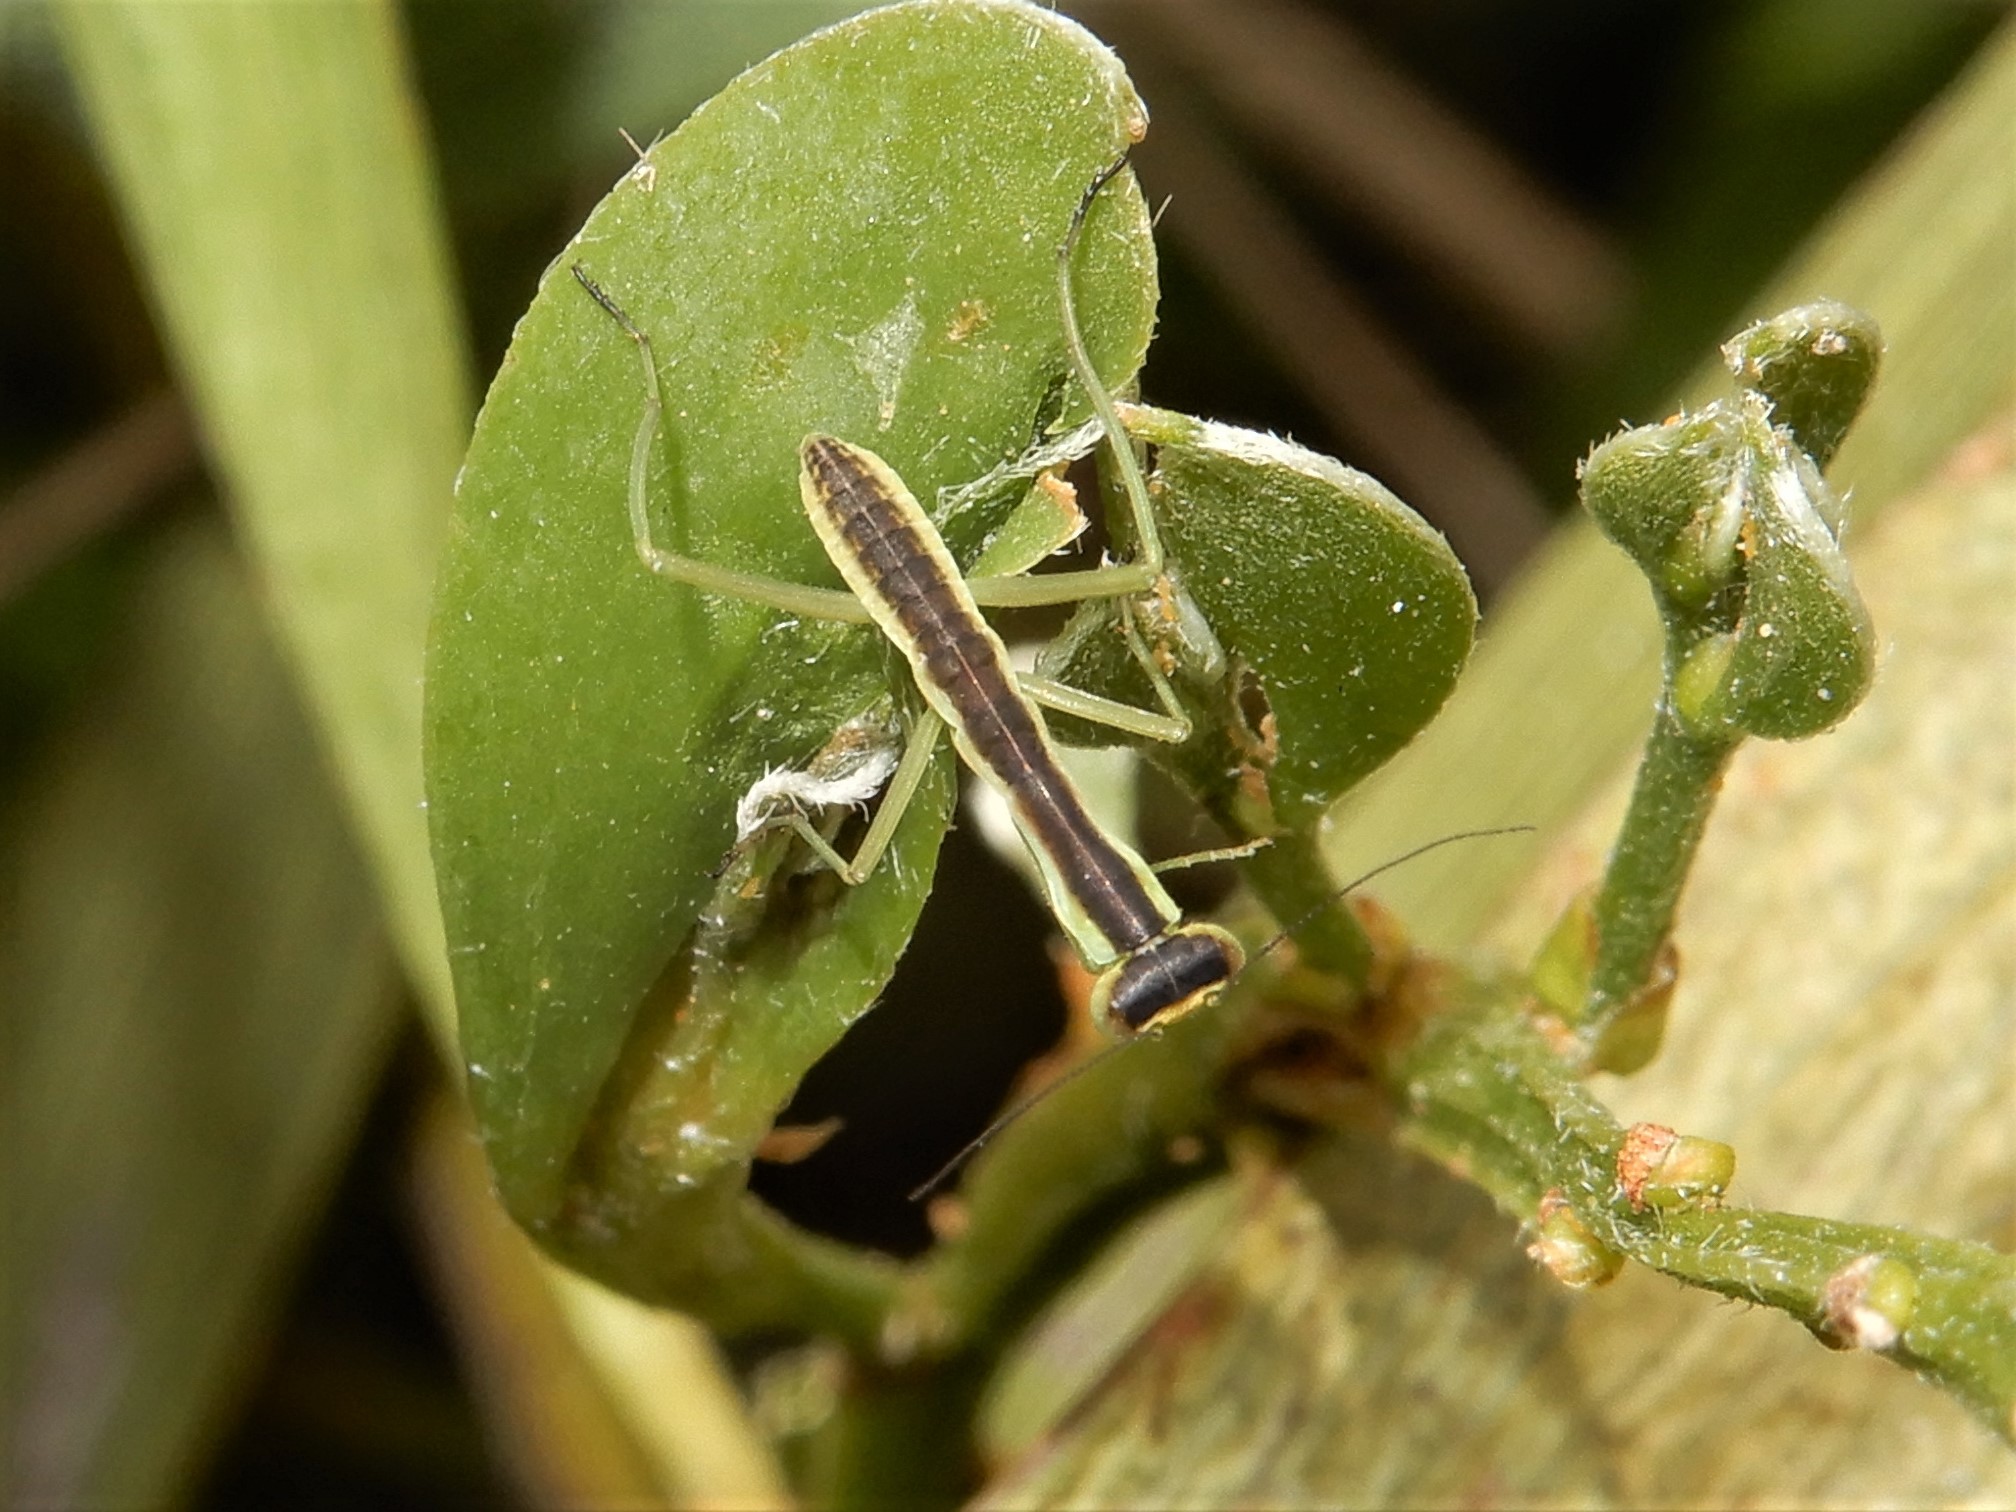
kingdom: Animalia
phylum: Arthropoda
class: Insecta
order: Mantodea
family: Mantidae
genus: Orthodera
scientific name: Orthodera novaezealandiae
